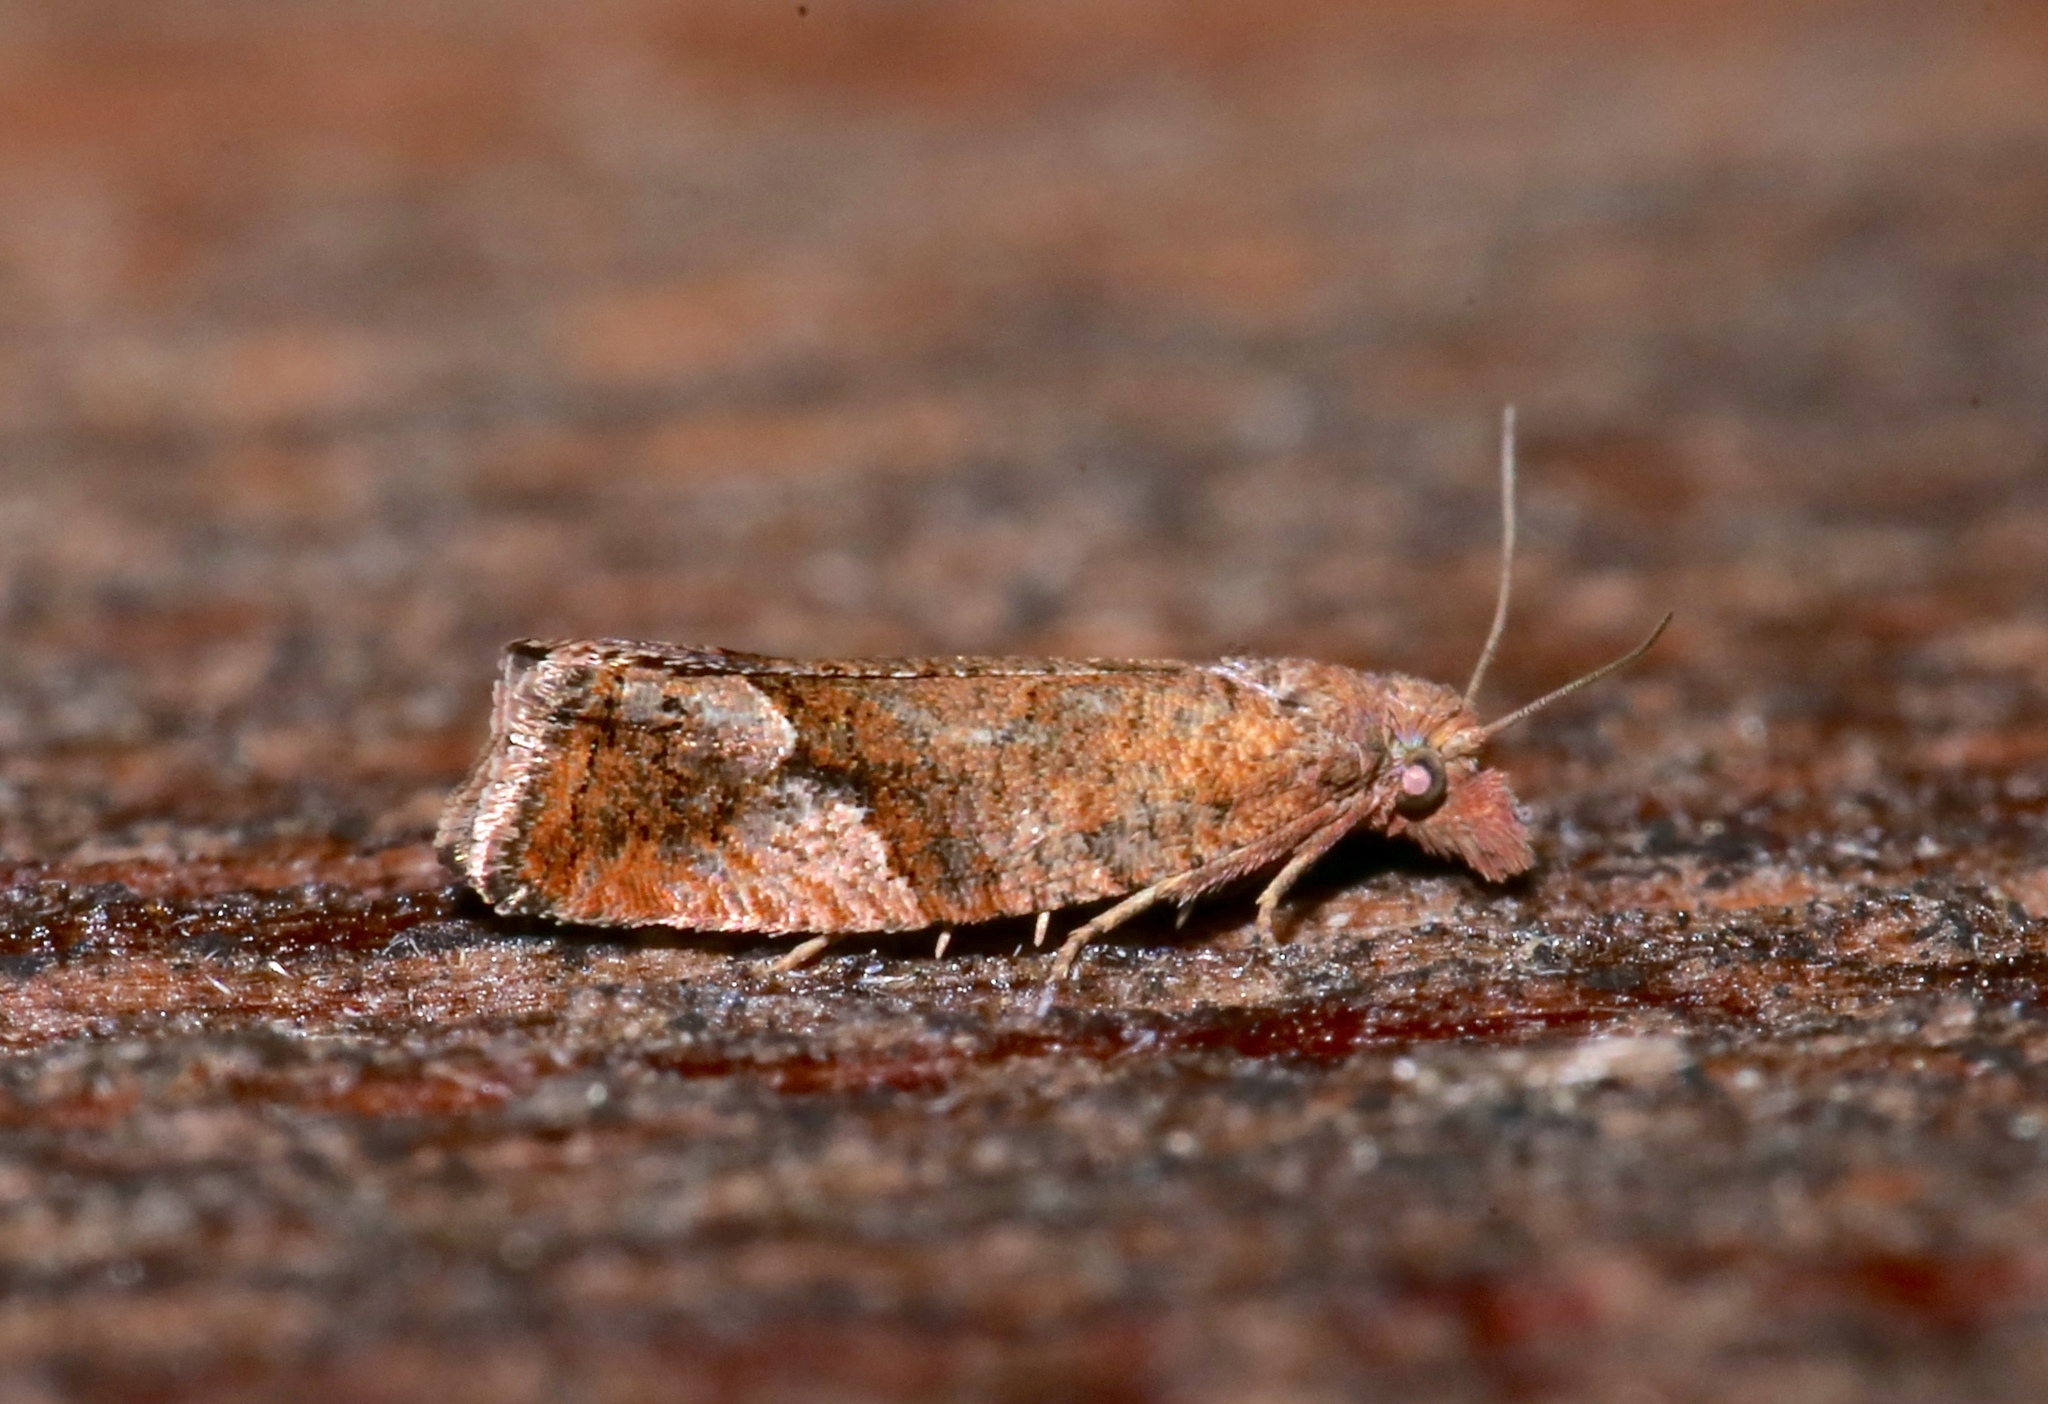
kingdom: Animalia
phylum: Arthropoda
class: Insecta
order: Lepidoptera
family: Tortricidae
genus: Pelochrista
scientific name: Pelochrista derelicta
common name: Derelict pelochrista moth
